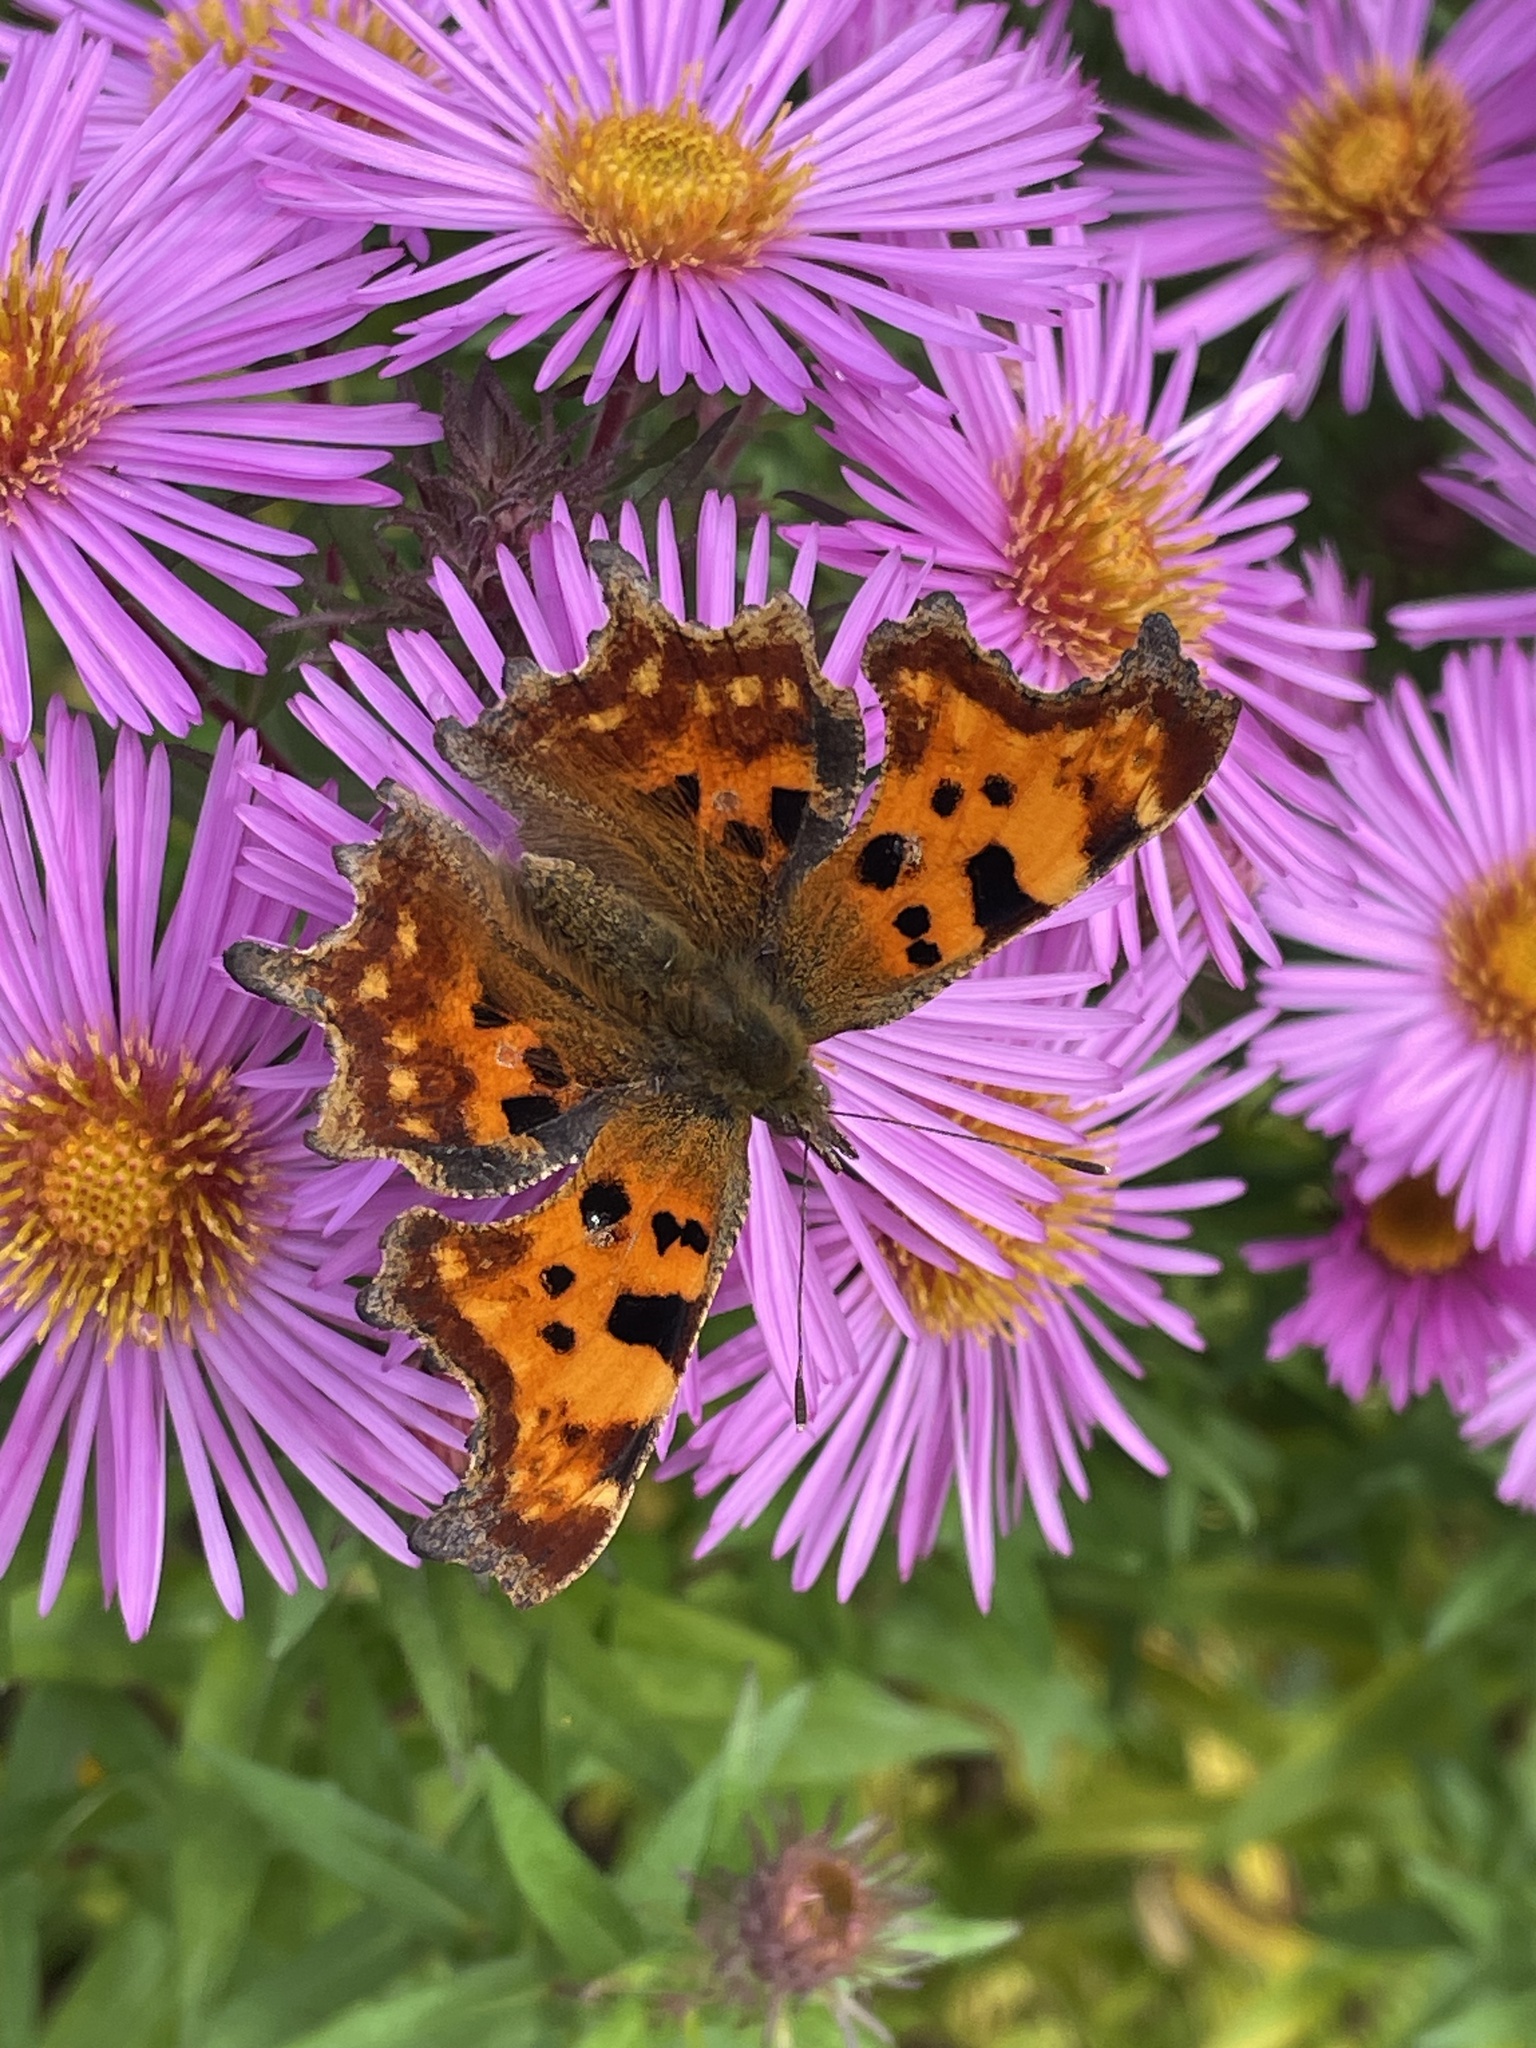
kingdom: Animalia
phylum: Arthropoda
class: Insecta
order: Lepidoptera
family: Nymphalidae
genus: Polygonia
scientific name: Polygonia c-album
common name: Comma
